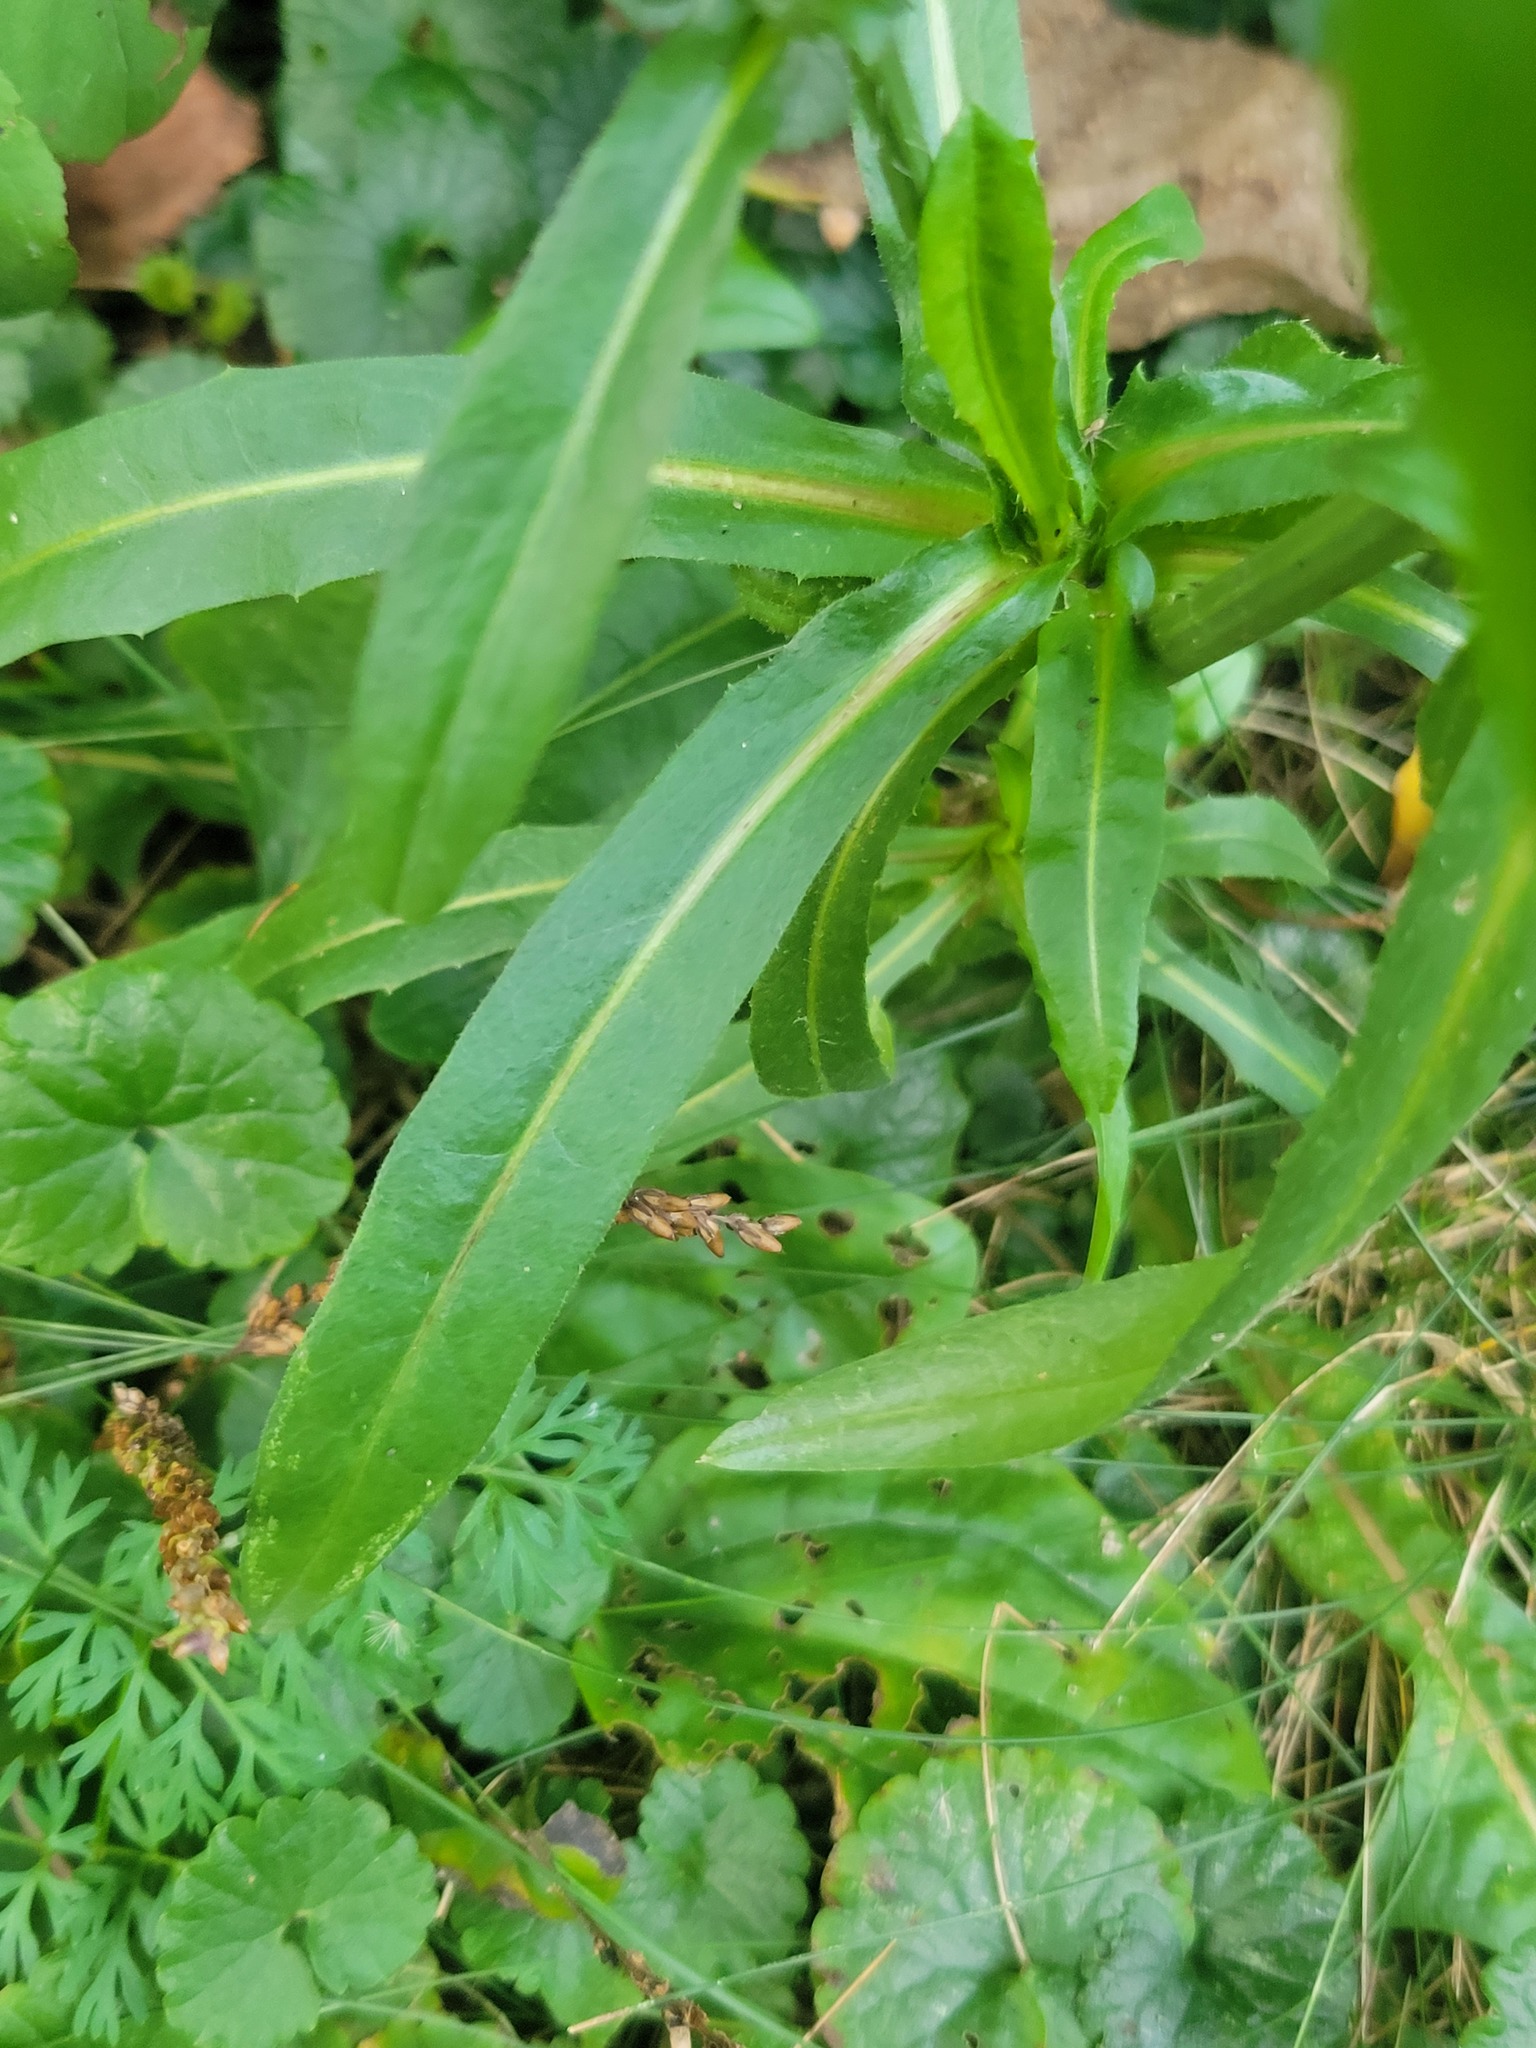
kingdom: Plantae
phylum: Tracheophyta
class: Magnoliopsida
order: Asterales
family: Asteraceae
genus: Cichorium
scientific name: Cichorium intybus
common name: Chicory
